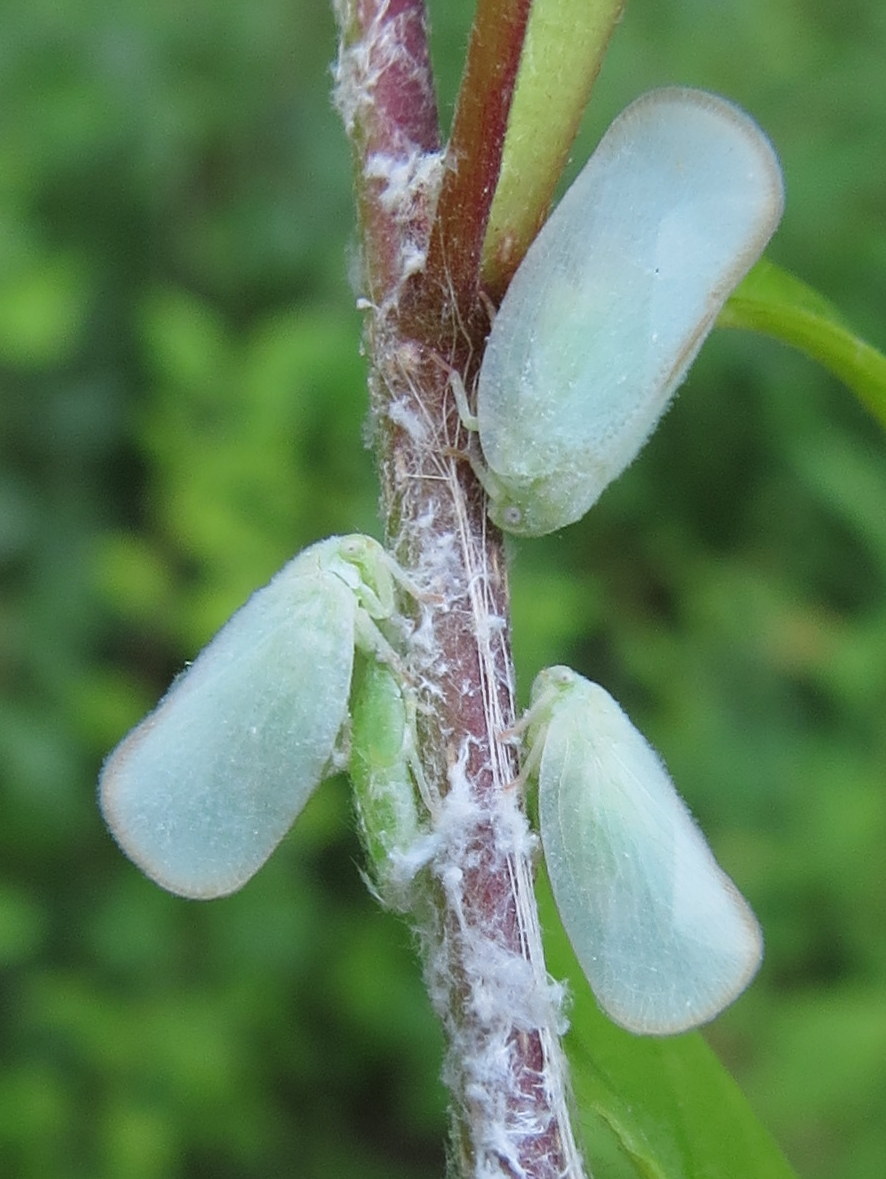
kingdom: Animalia
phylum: Arthropoda
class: Insecta
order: Hemiptera
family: Flatidae
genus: Ormenoides
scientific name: Ormenoides venusta
